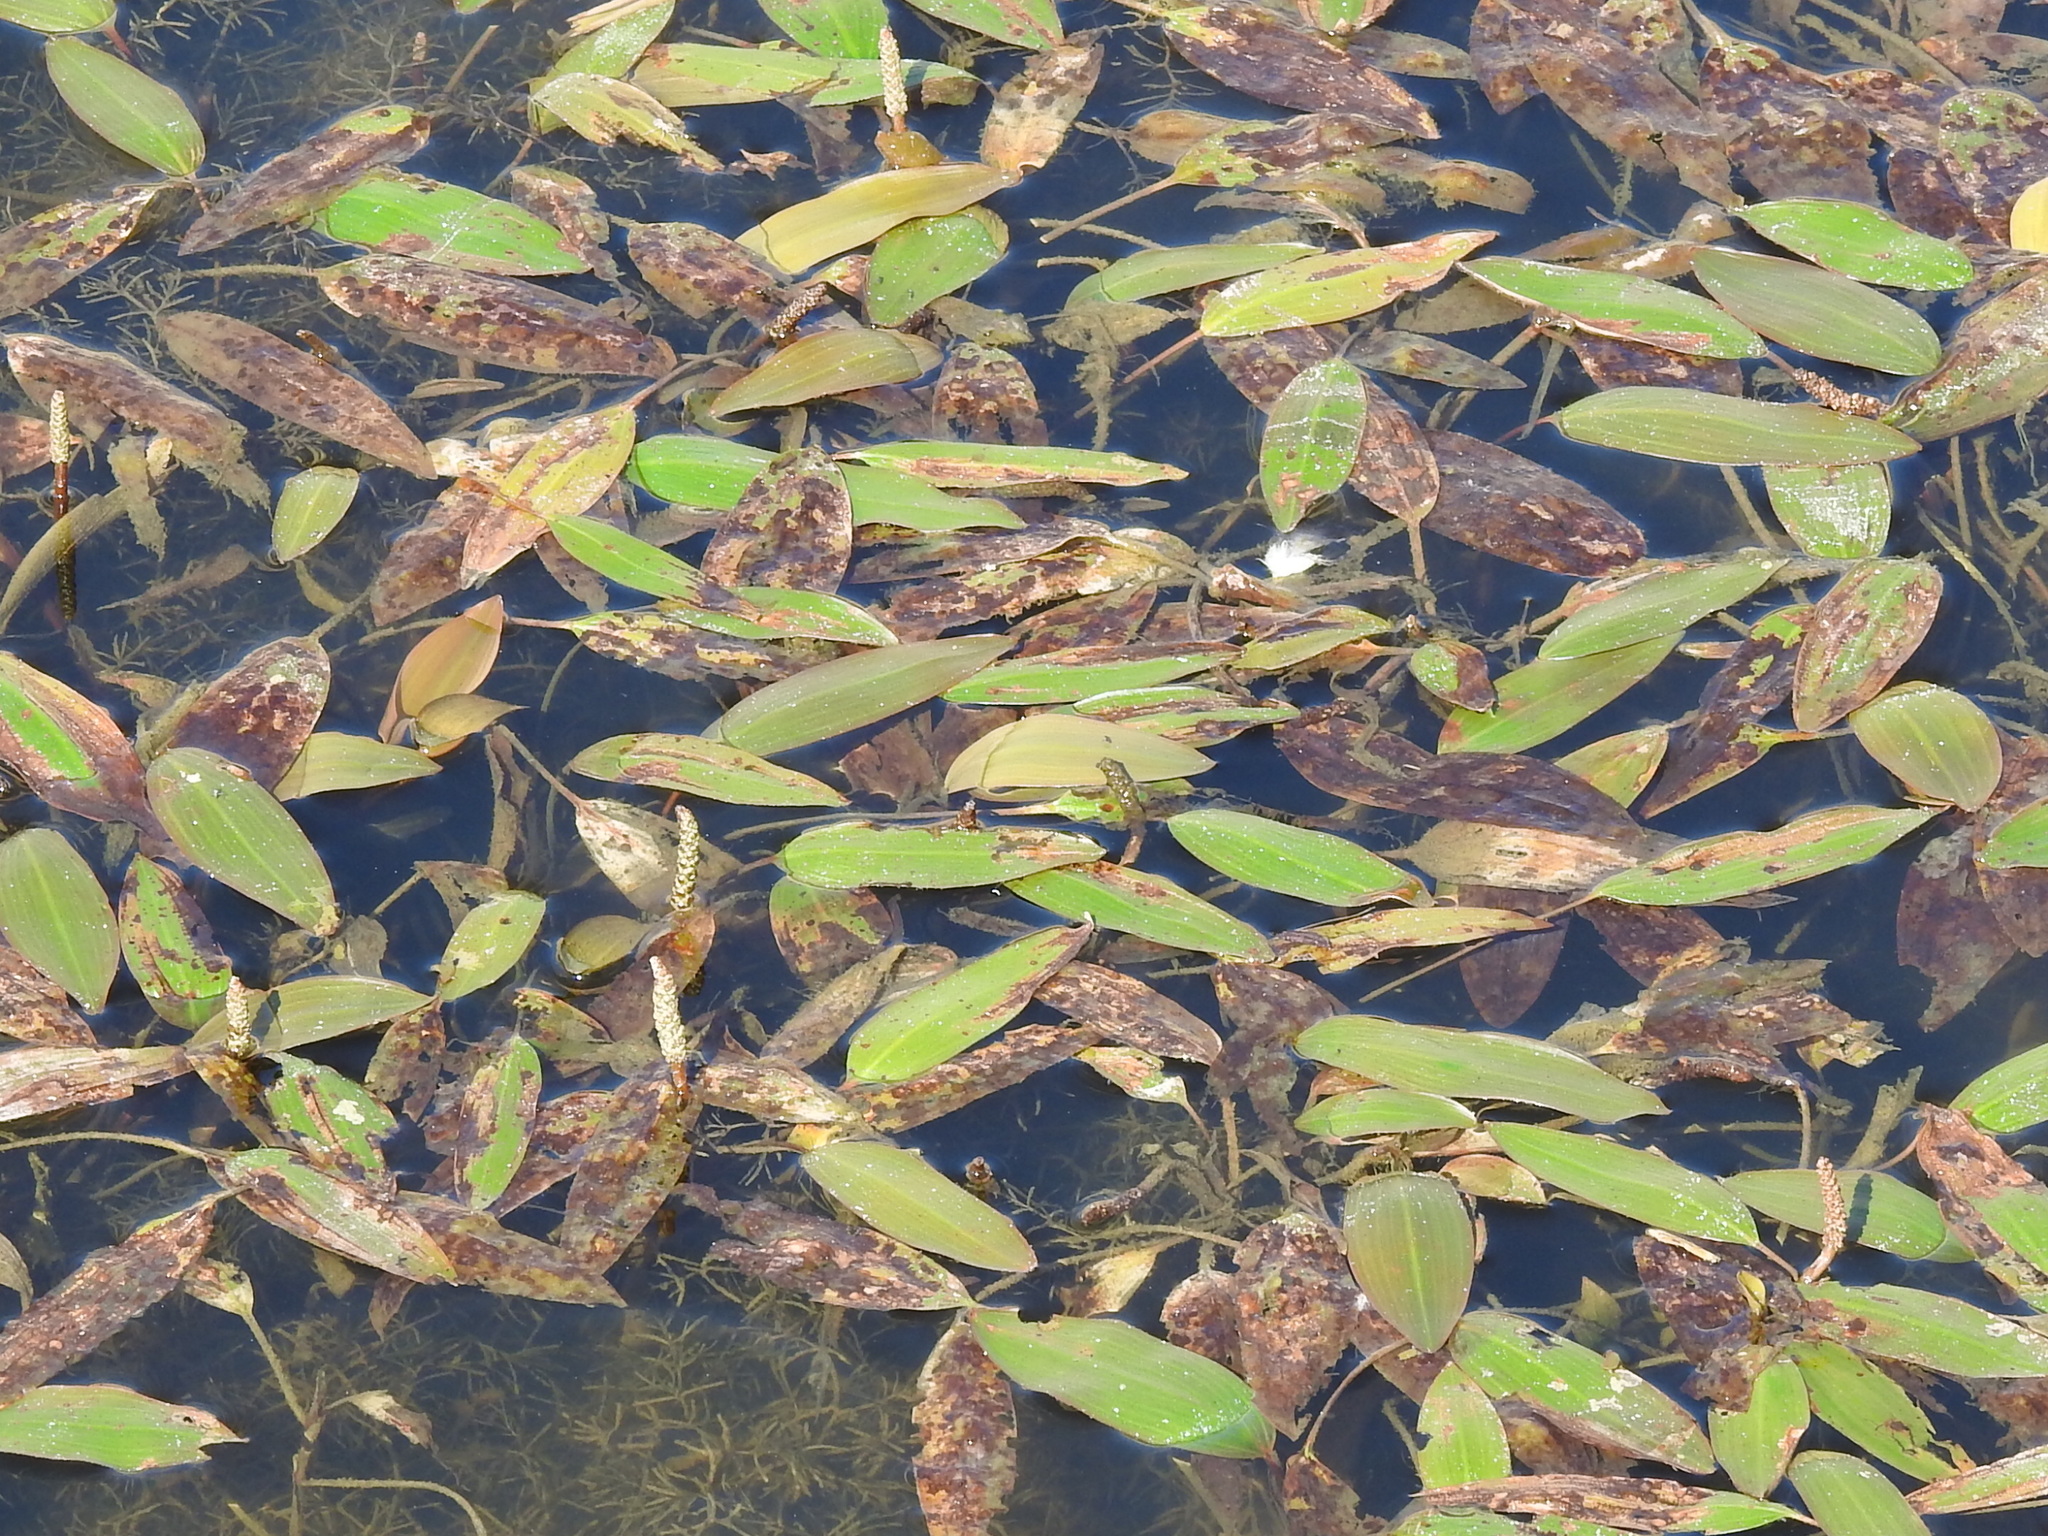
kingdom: Plantae
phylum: Tracheophyta
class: Liliopsida
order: Alismatales
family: Potamogetonaceae
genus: Potamogeton
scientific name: Potamogeton nodosus
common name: Loddon pondweed
